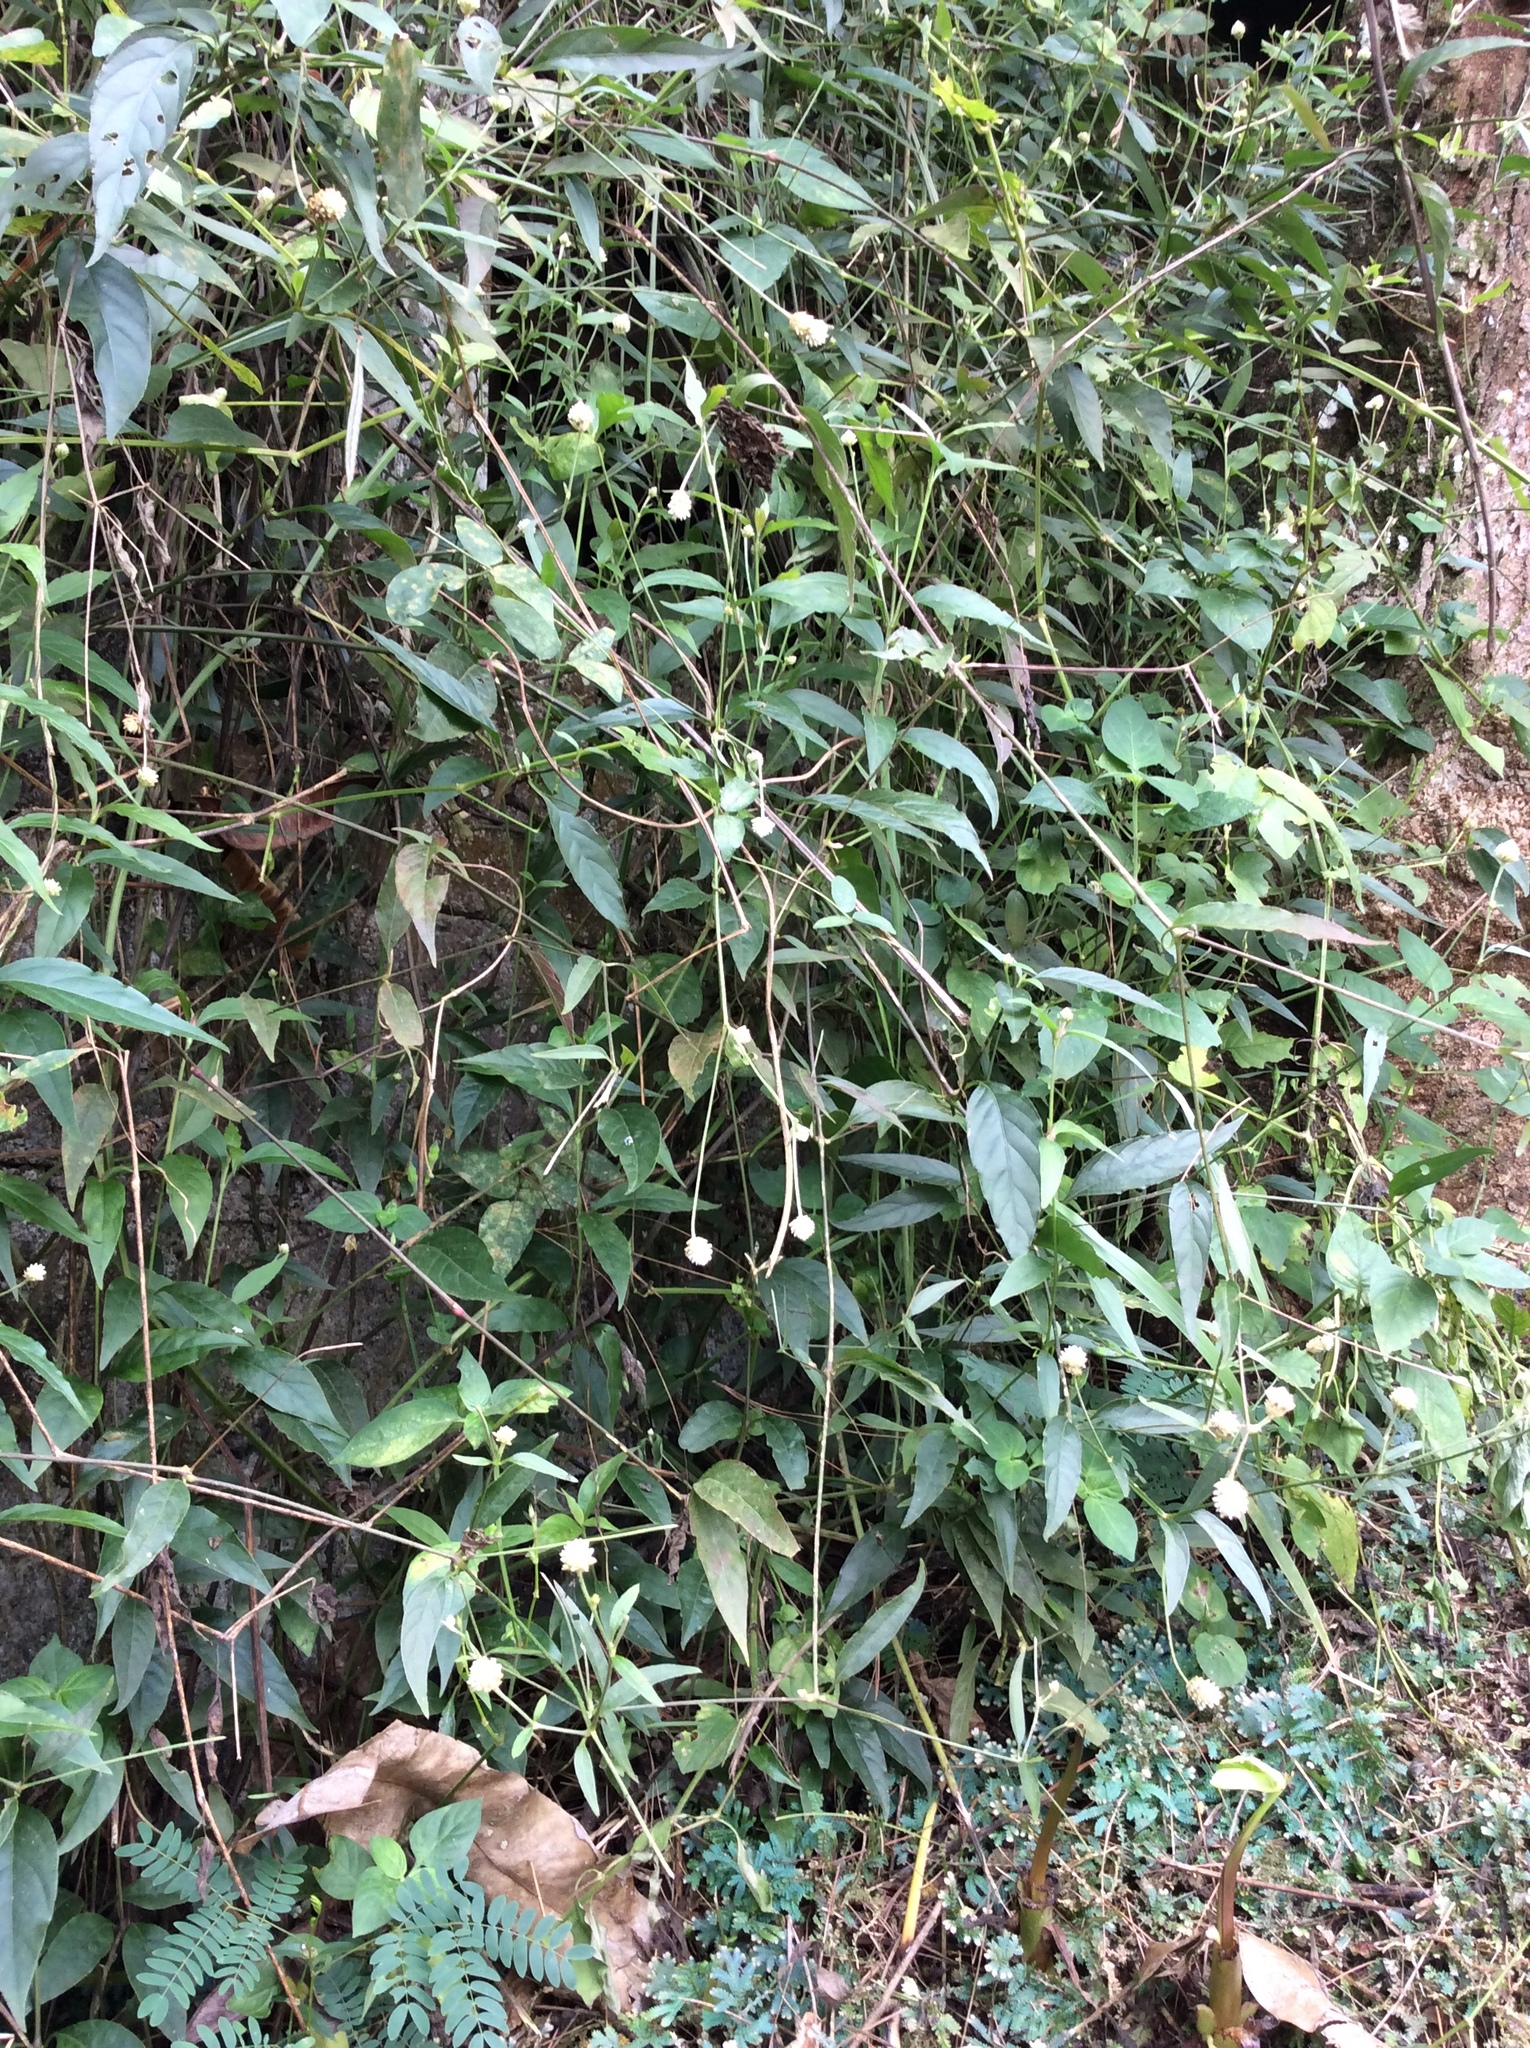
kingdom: Plantae
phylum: Tracheophyta
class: Magnoliopsida
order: Caryophyllales
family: Amaranthaceae
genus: Gomphrena
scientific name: Gomphrena celosioides
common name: Gomphrena-weed
